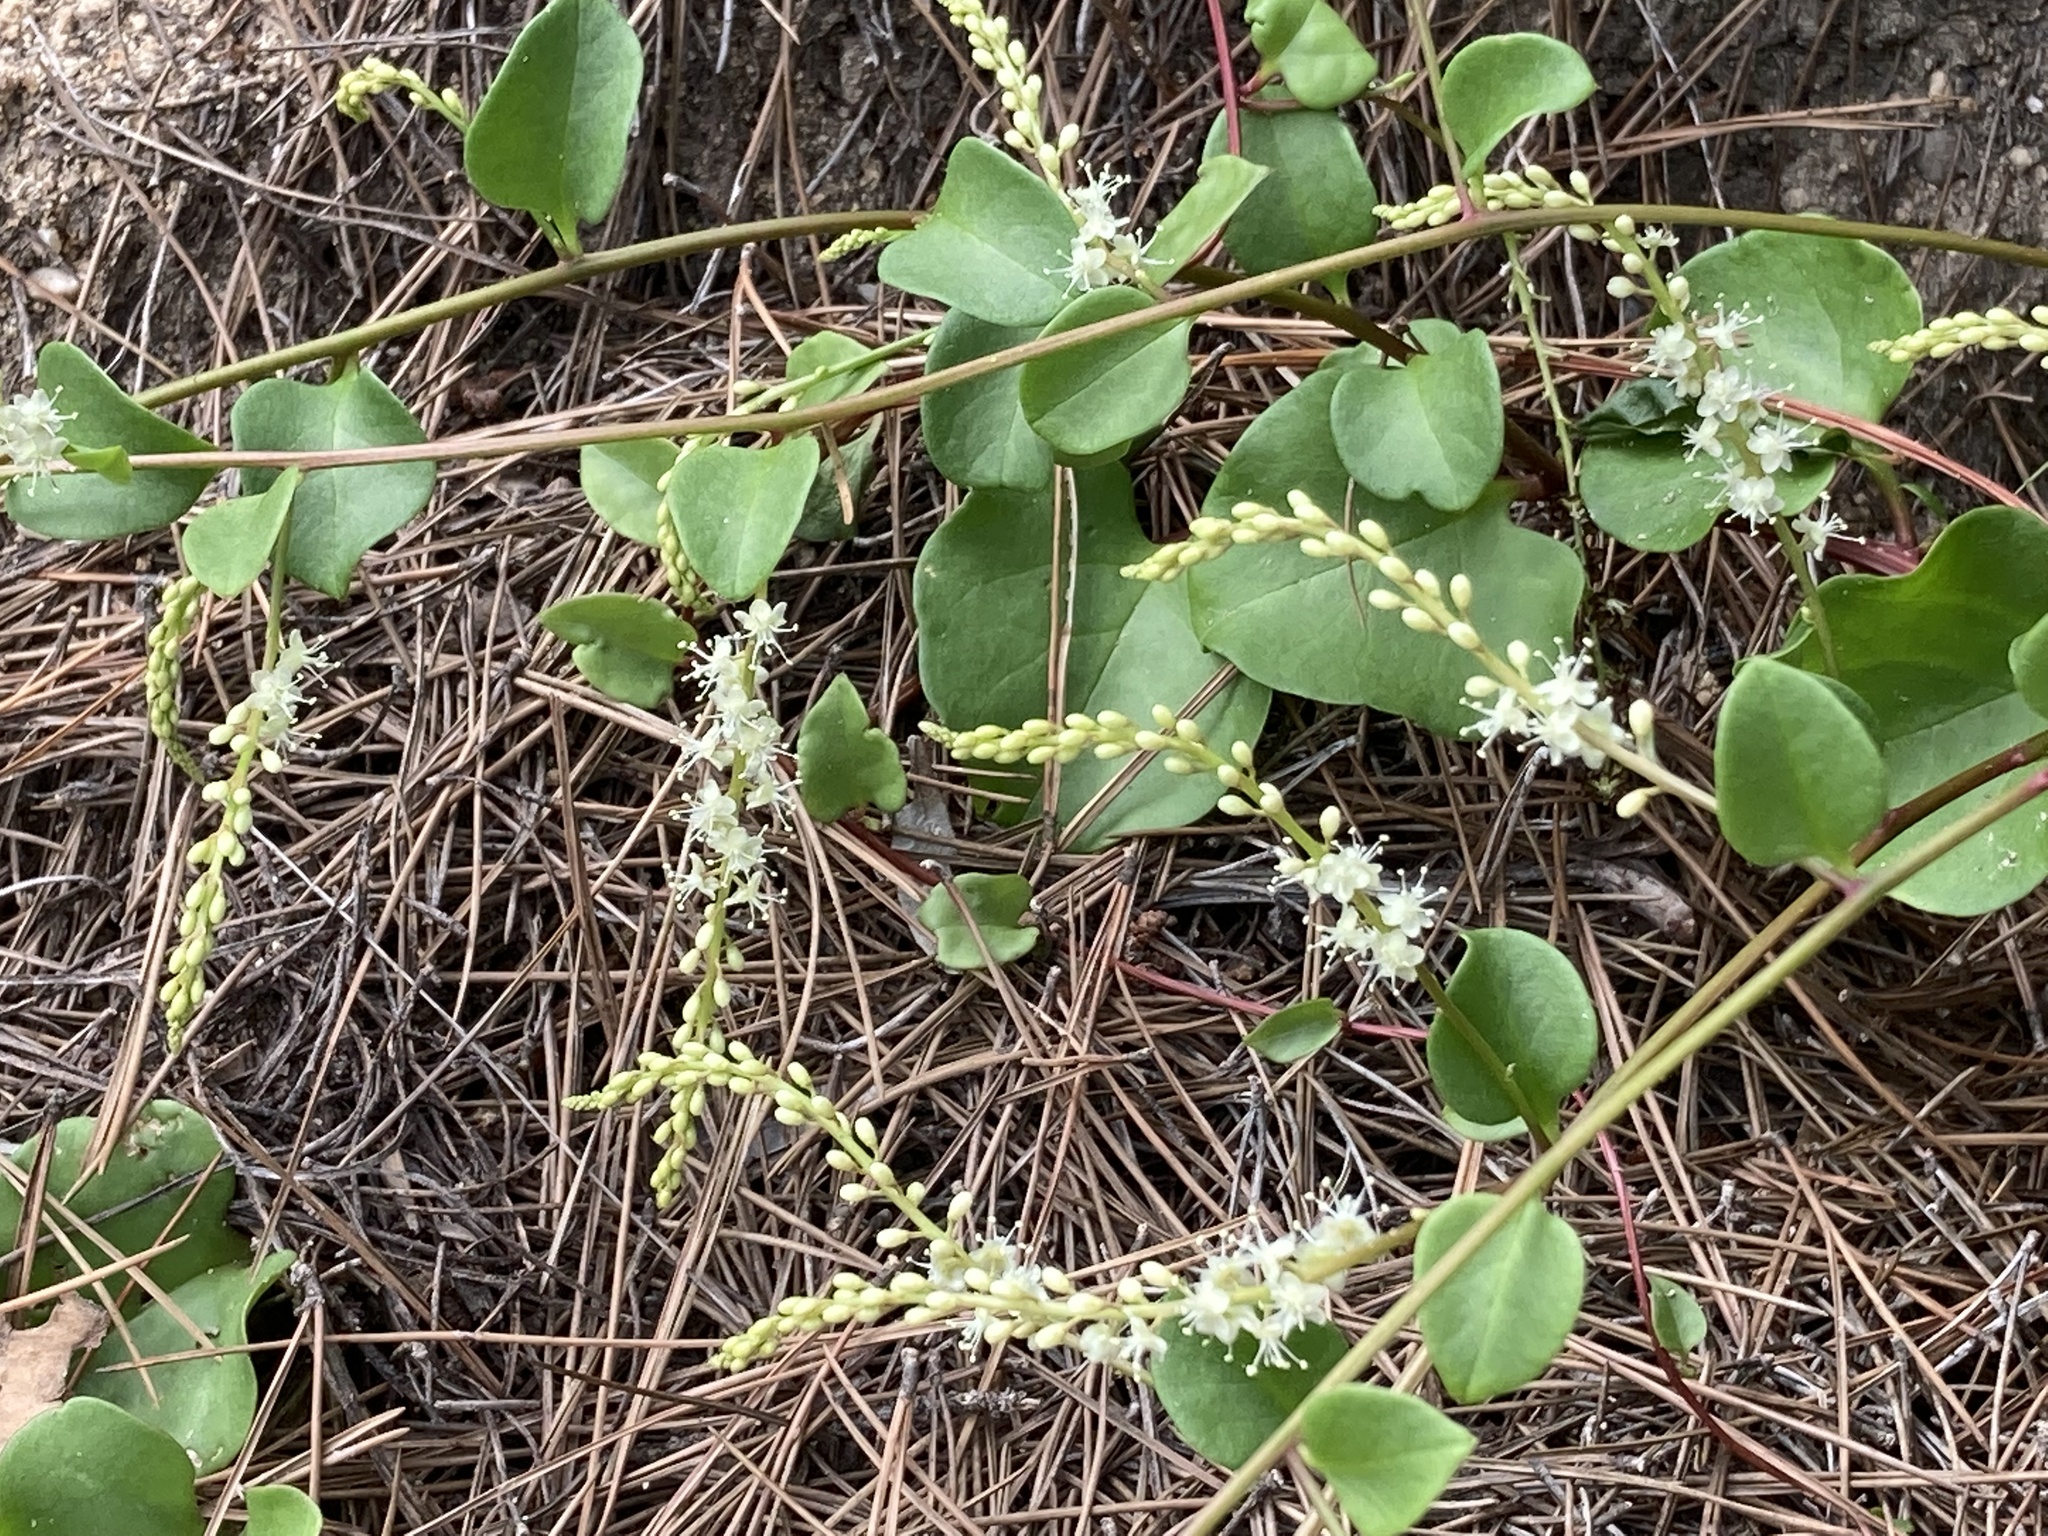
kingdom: Plantae
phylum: Tracheophyta
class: Magnoliopsida
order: Caryophyllales
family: Basellaceae
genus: Anredera
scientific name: Anredera cordifolia
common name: Heartleaf madeiravine
